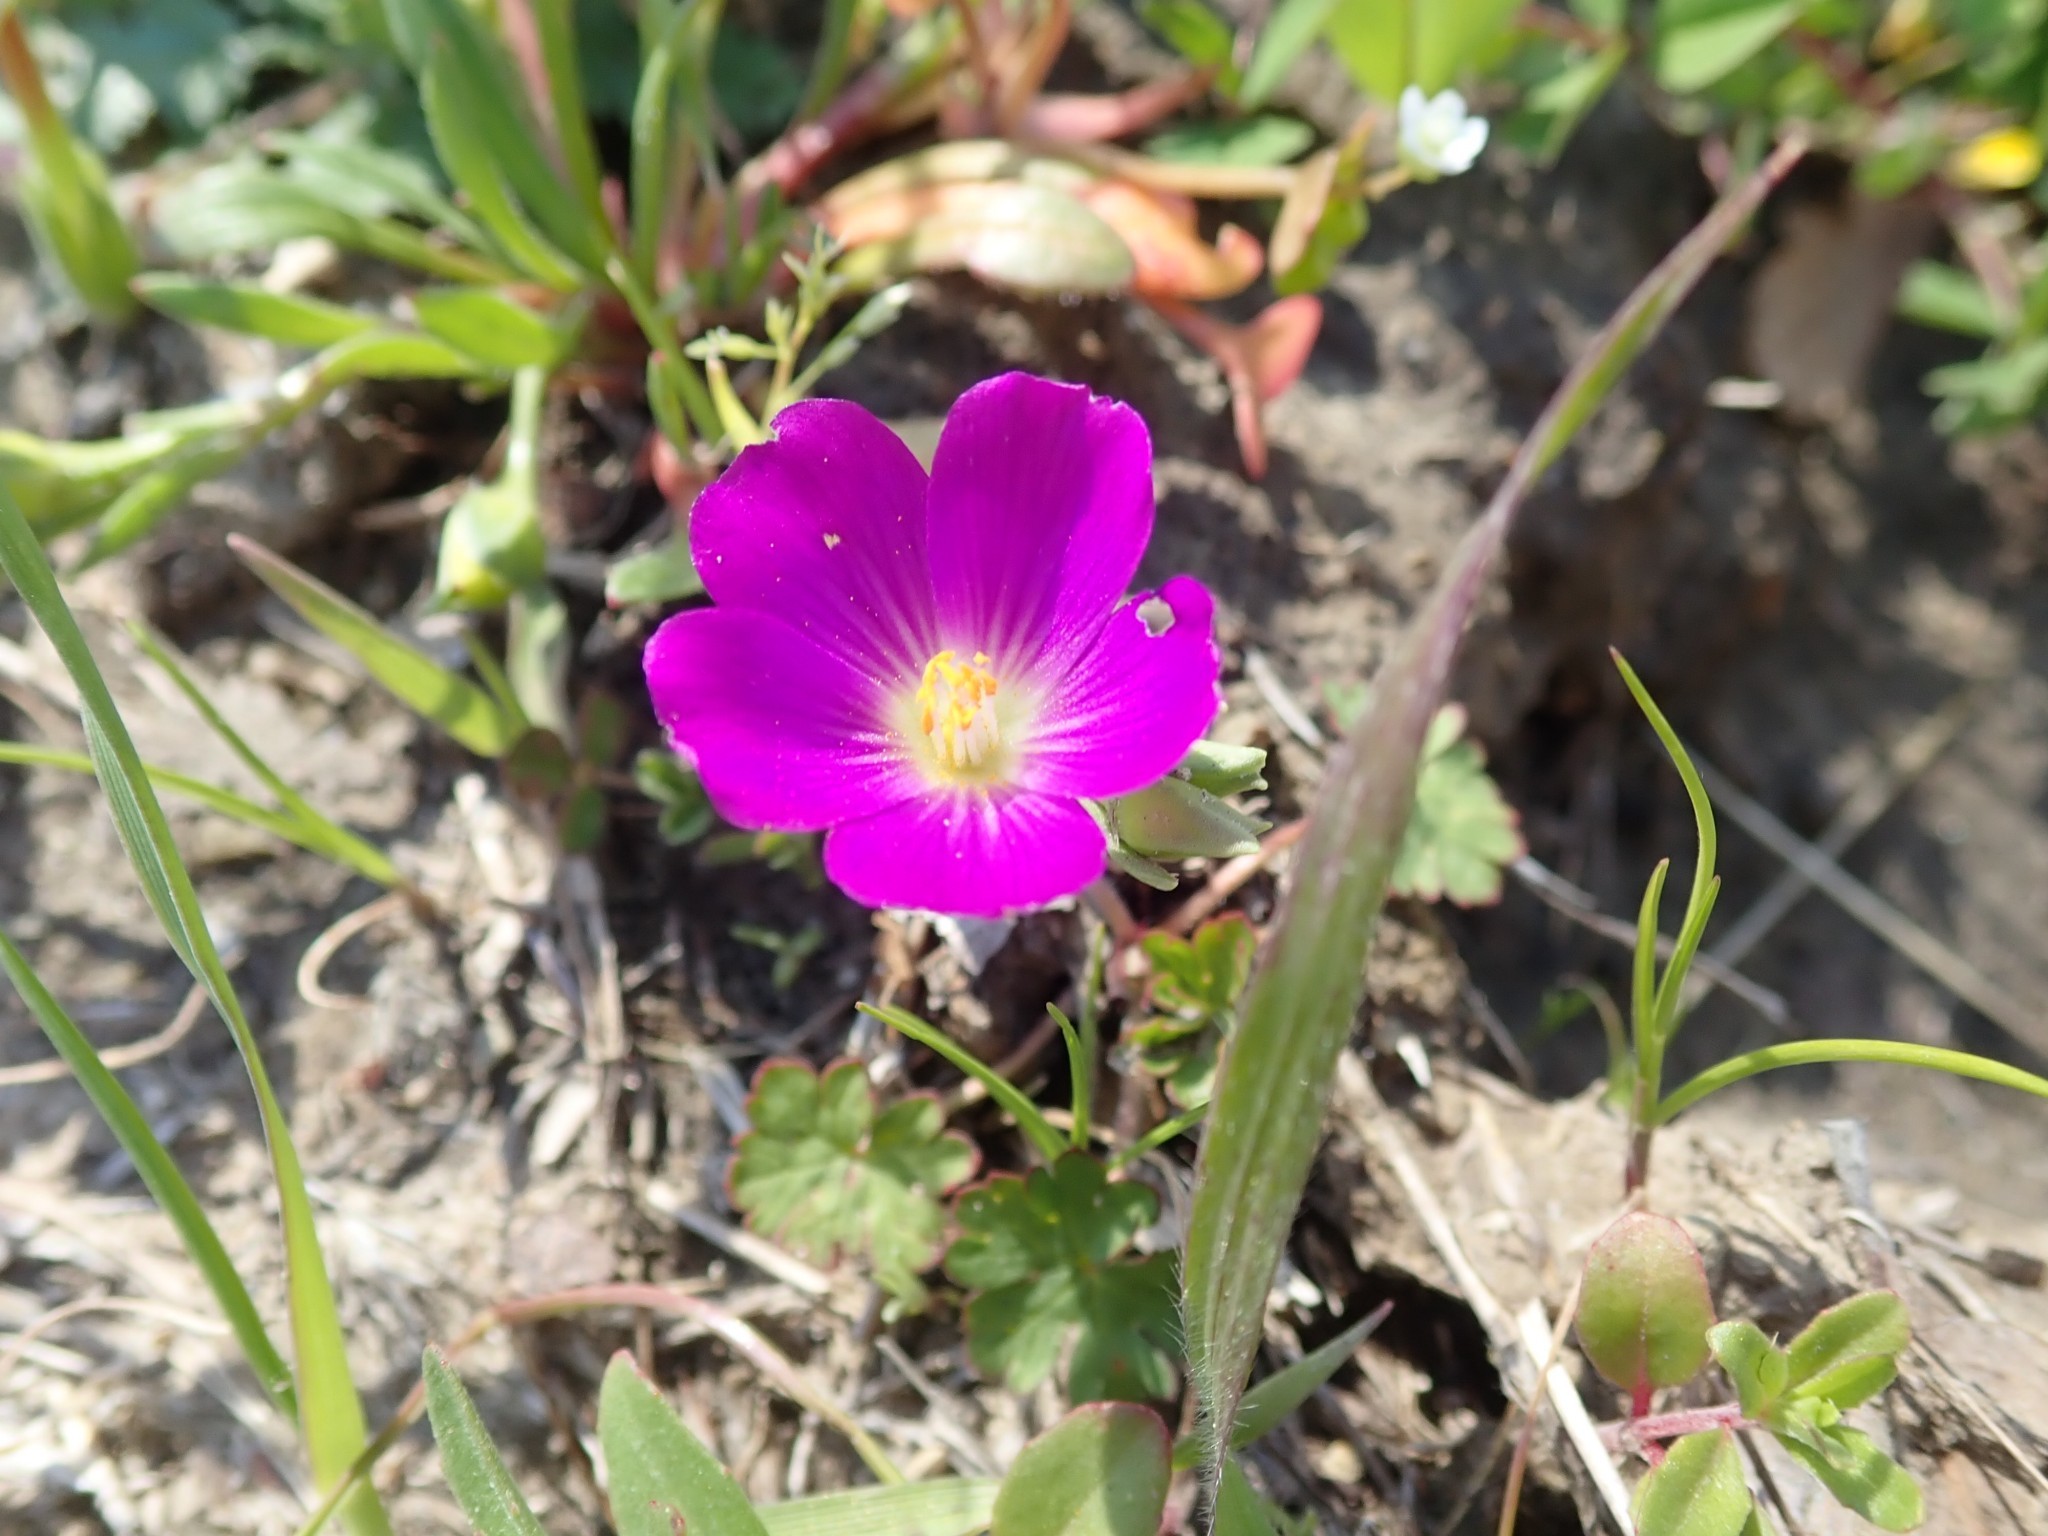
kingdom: Plantae
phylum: Tracheophyta
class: Magnoliopsida
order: Caryophyllales
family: Montiaceae
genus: Calandrinia
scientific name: Calandrinia menziesii
